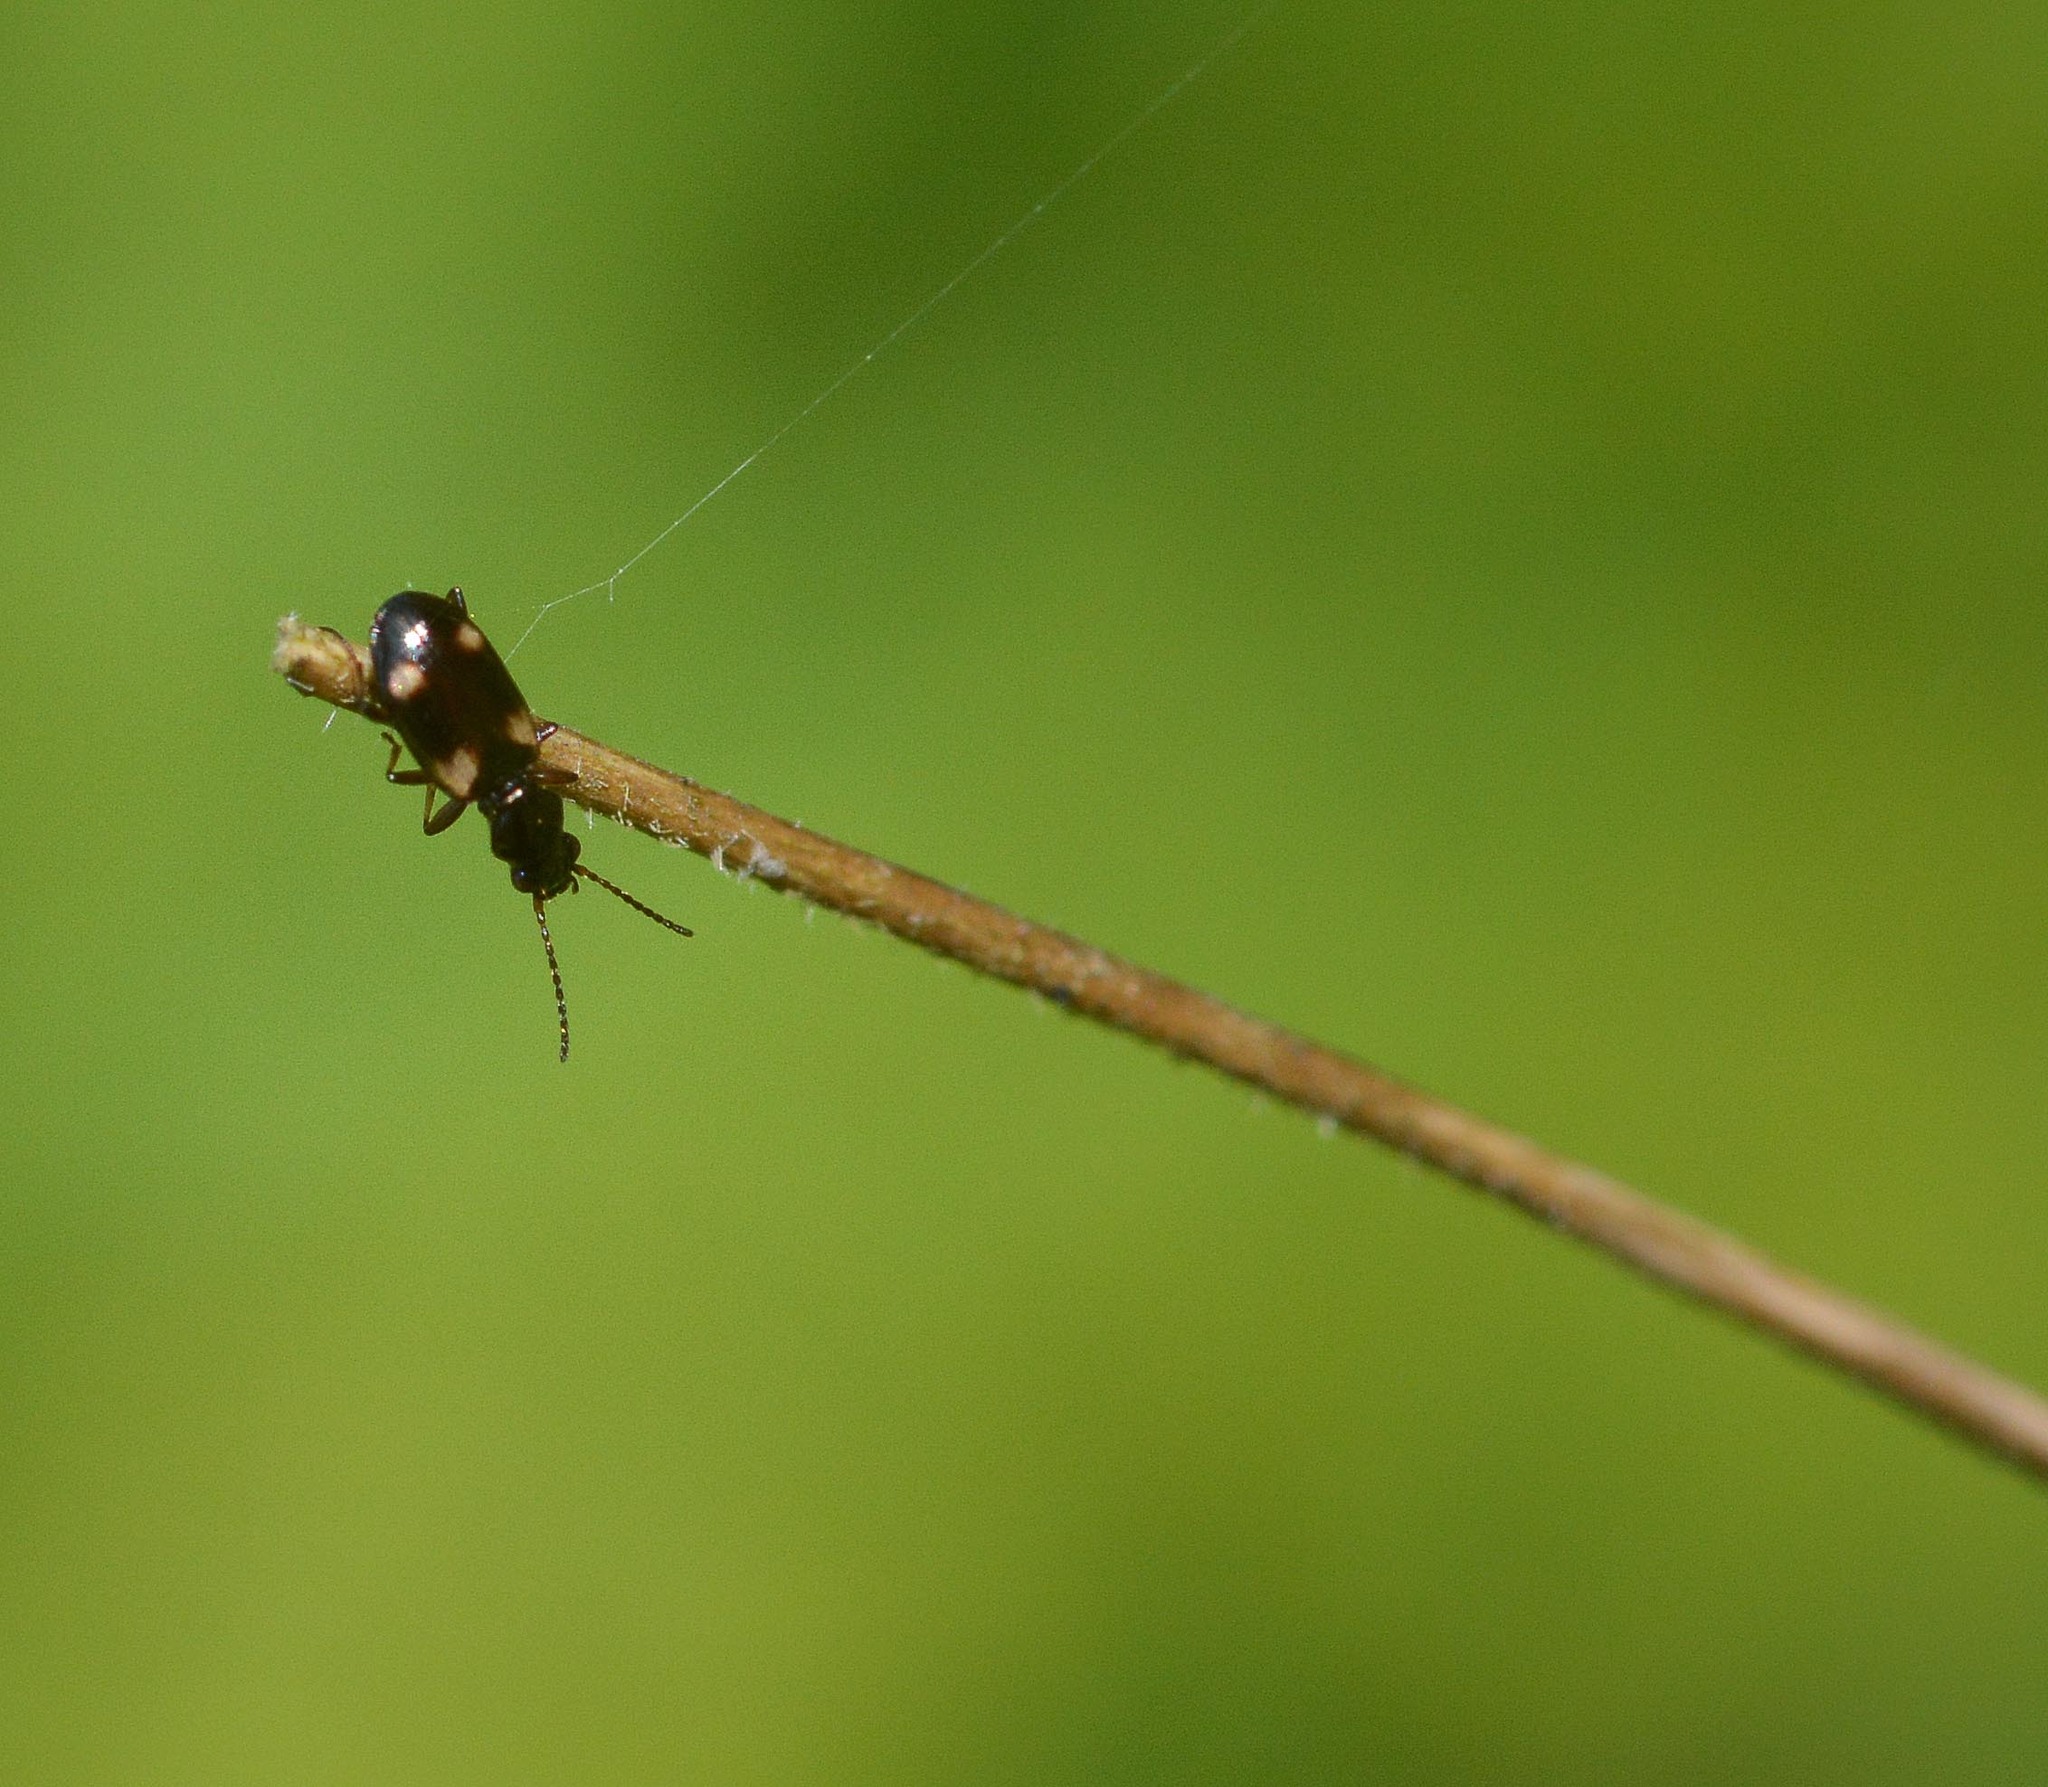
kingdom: Animalia
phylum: Arthropoda
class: Insecta
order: Coleoptera
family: Carabidae
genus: Bembidion
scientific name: Bembidion quadrimaculatum
